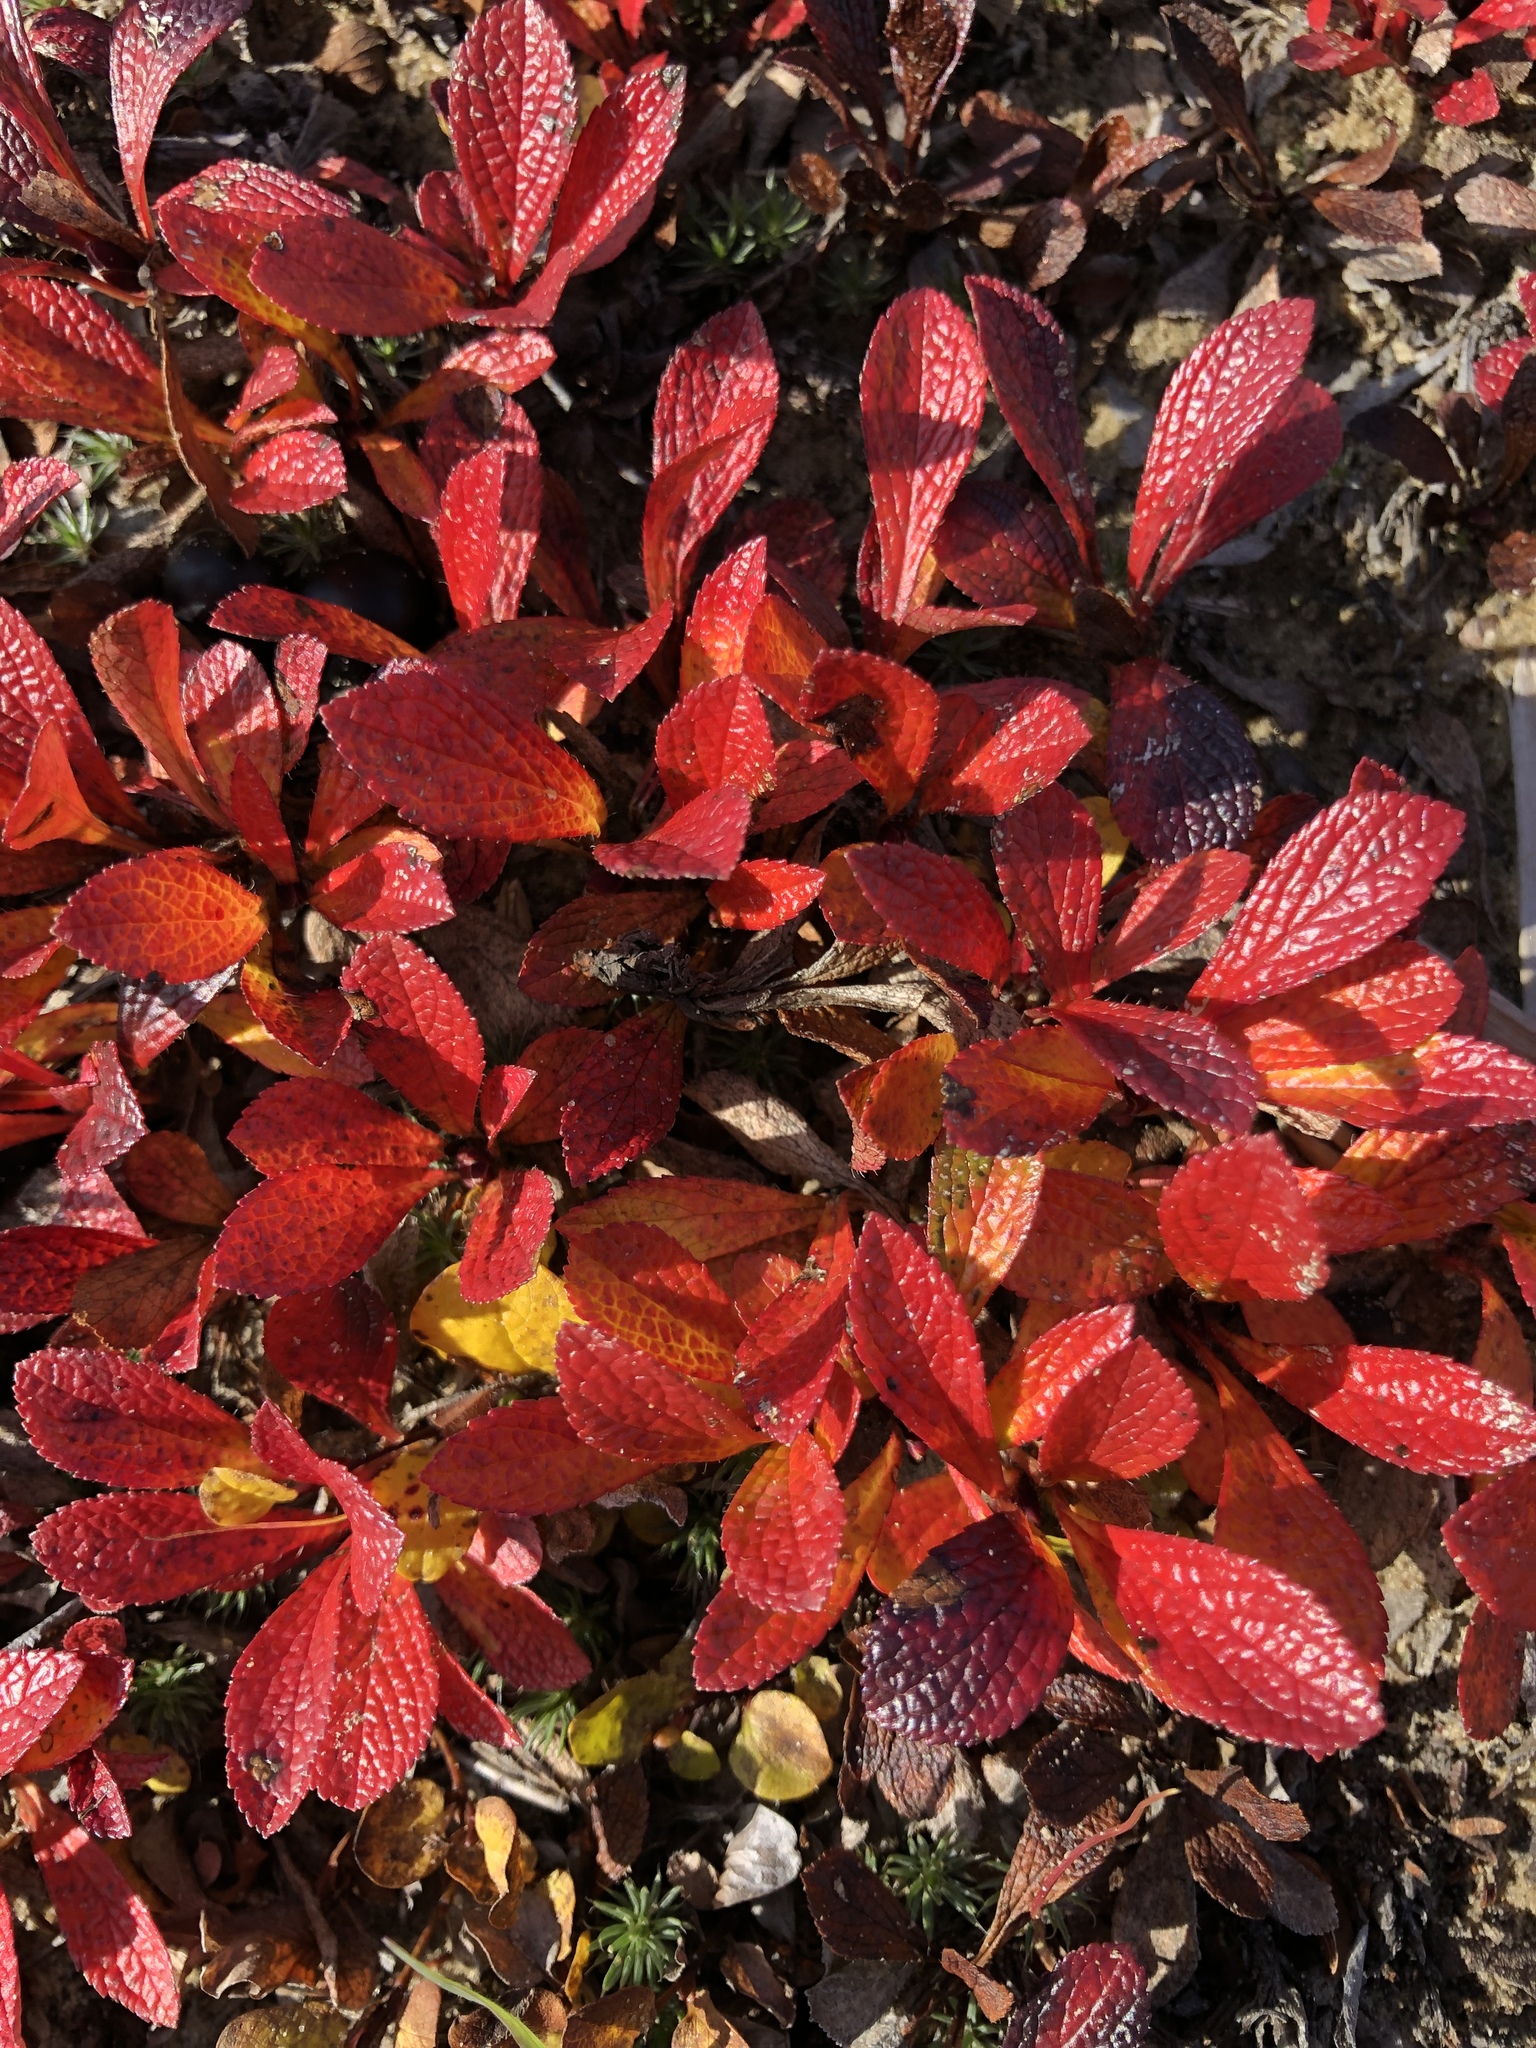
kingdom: Plantae
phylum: Tracheophyta
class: Magnoliopsida
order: Ericales
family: Ericaceae
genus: Arctostaphylos
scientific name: Arctostaphylos alpinus
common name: Alpine bearberry
